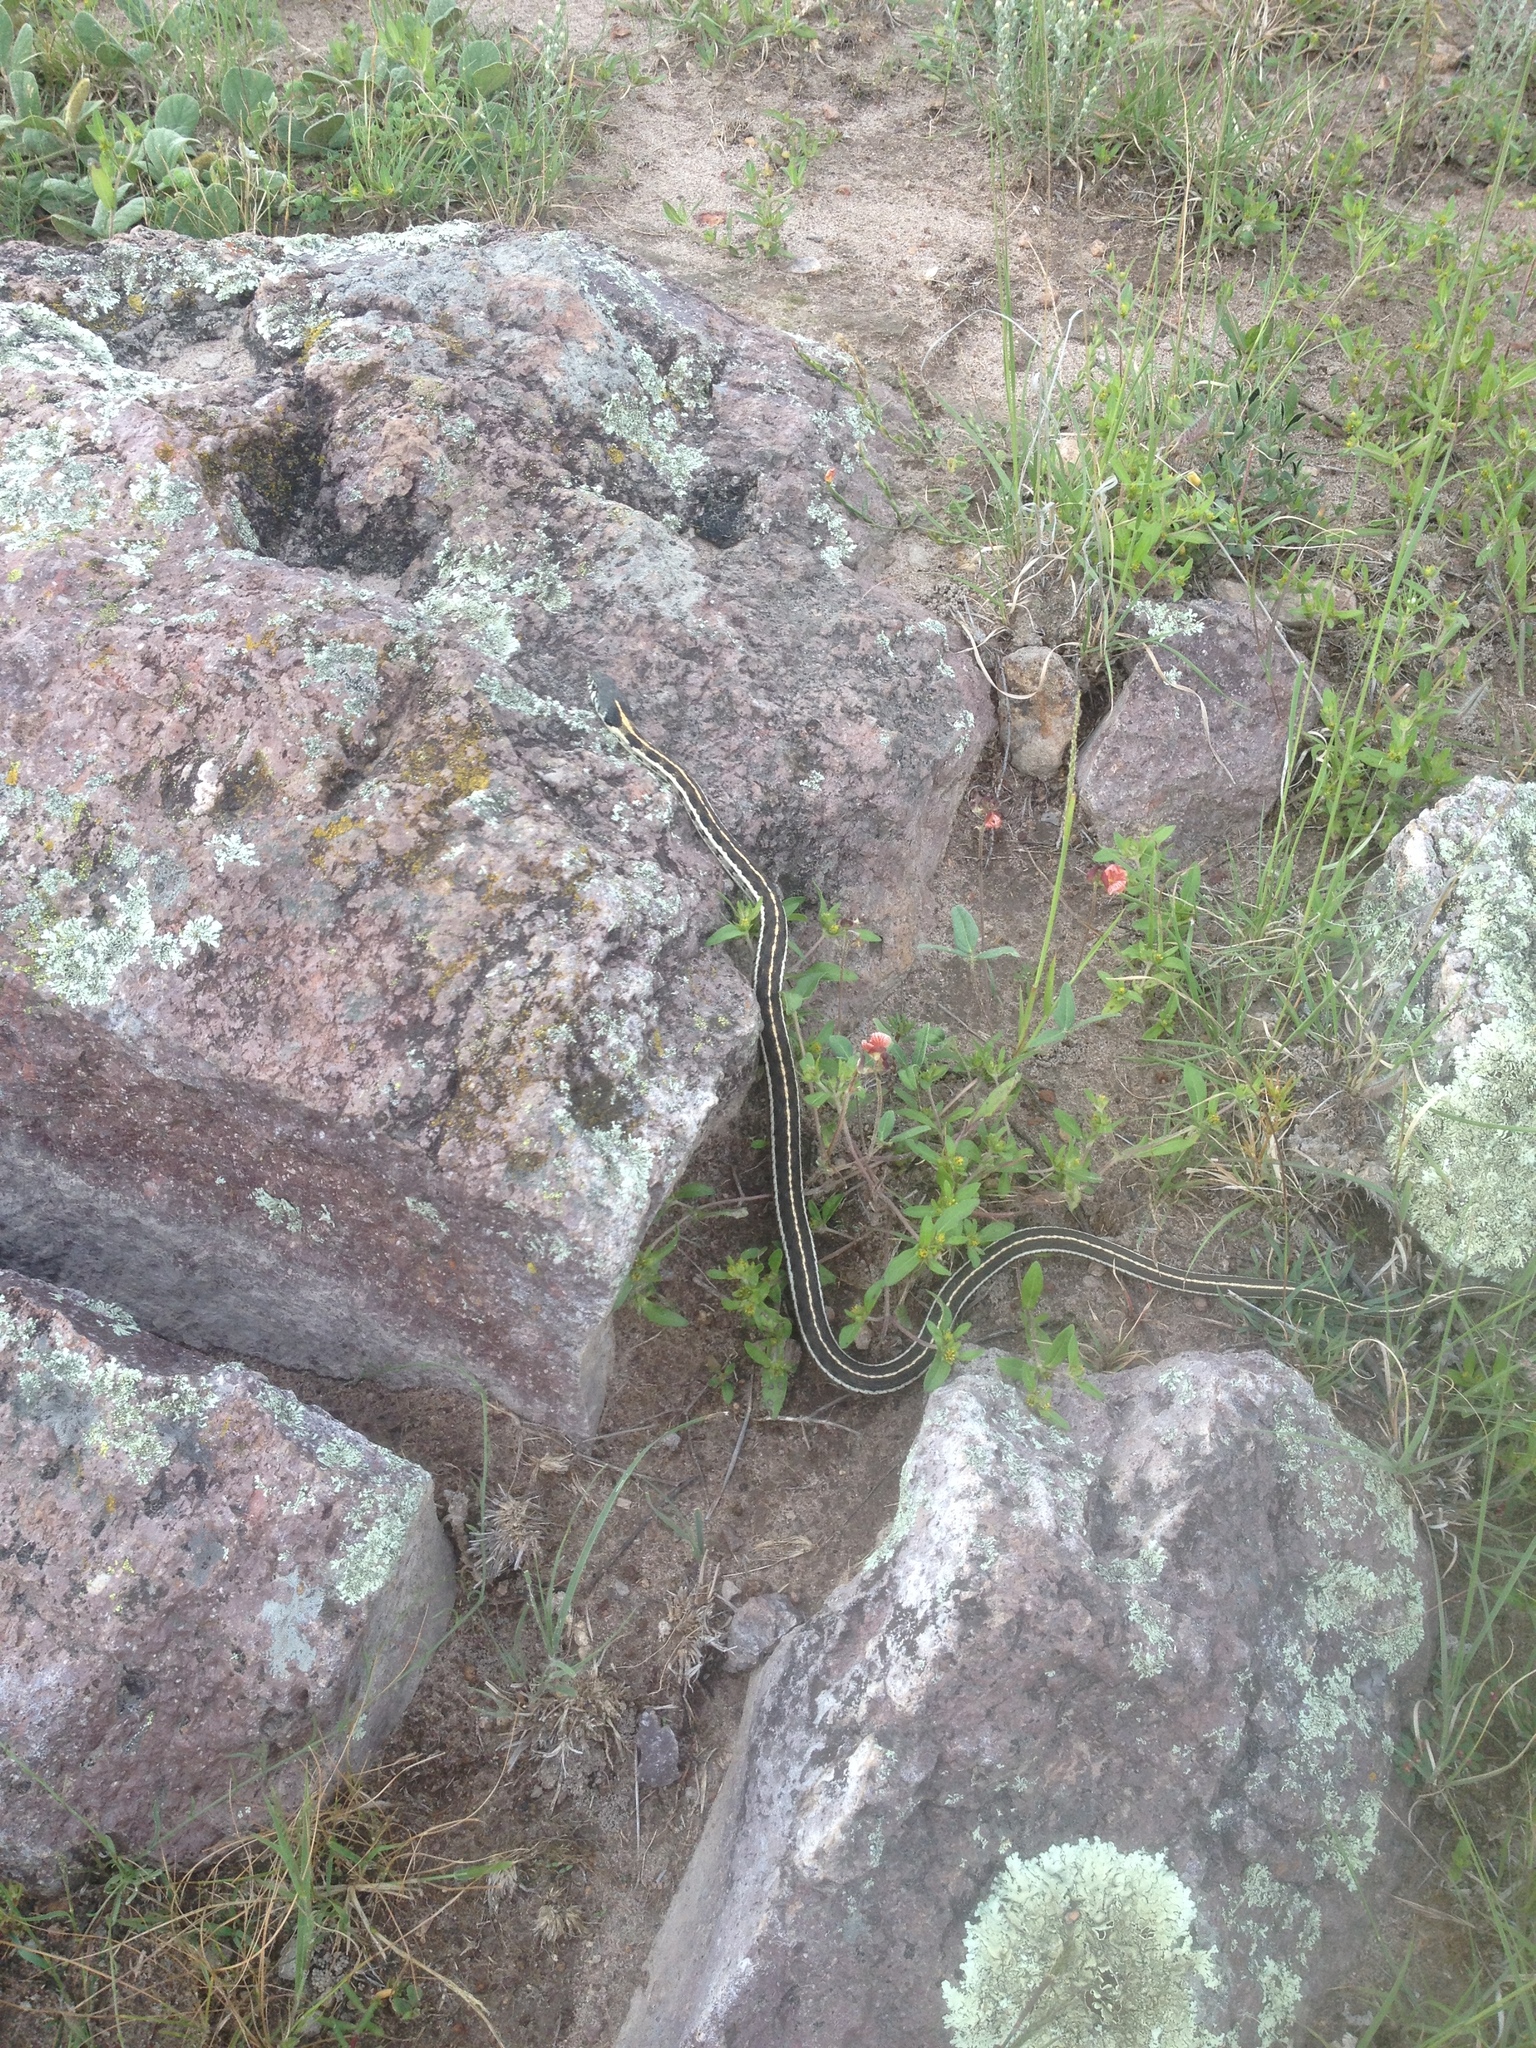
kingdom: Animalia
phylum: Chordata
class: Squamata
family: Colubridae
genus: Thamnophis
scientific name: Thamnophis cyrtopsis
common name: Black-necked gartersnake
